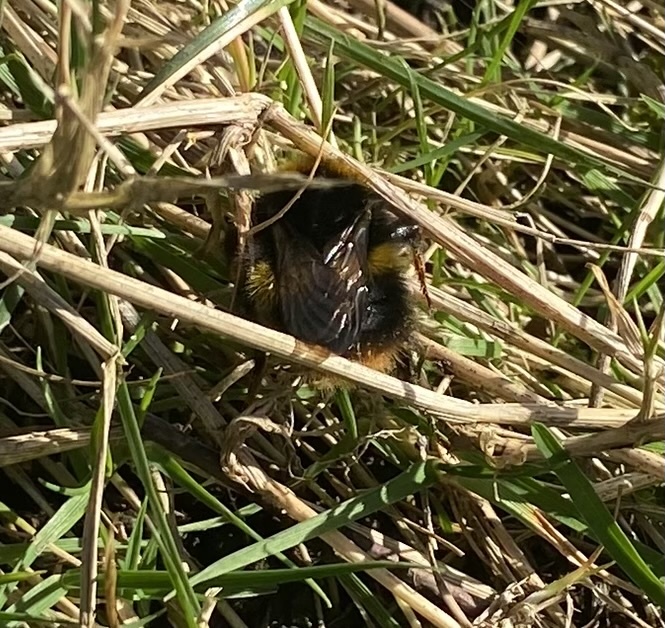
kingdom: Animalia
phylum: Arthropoda
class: Insecta
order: Hymenoptera
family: Apidae
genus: Bombus
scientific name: Bombus pratorum
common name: Early humble-bee
